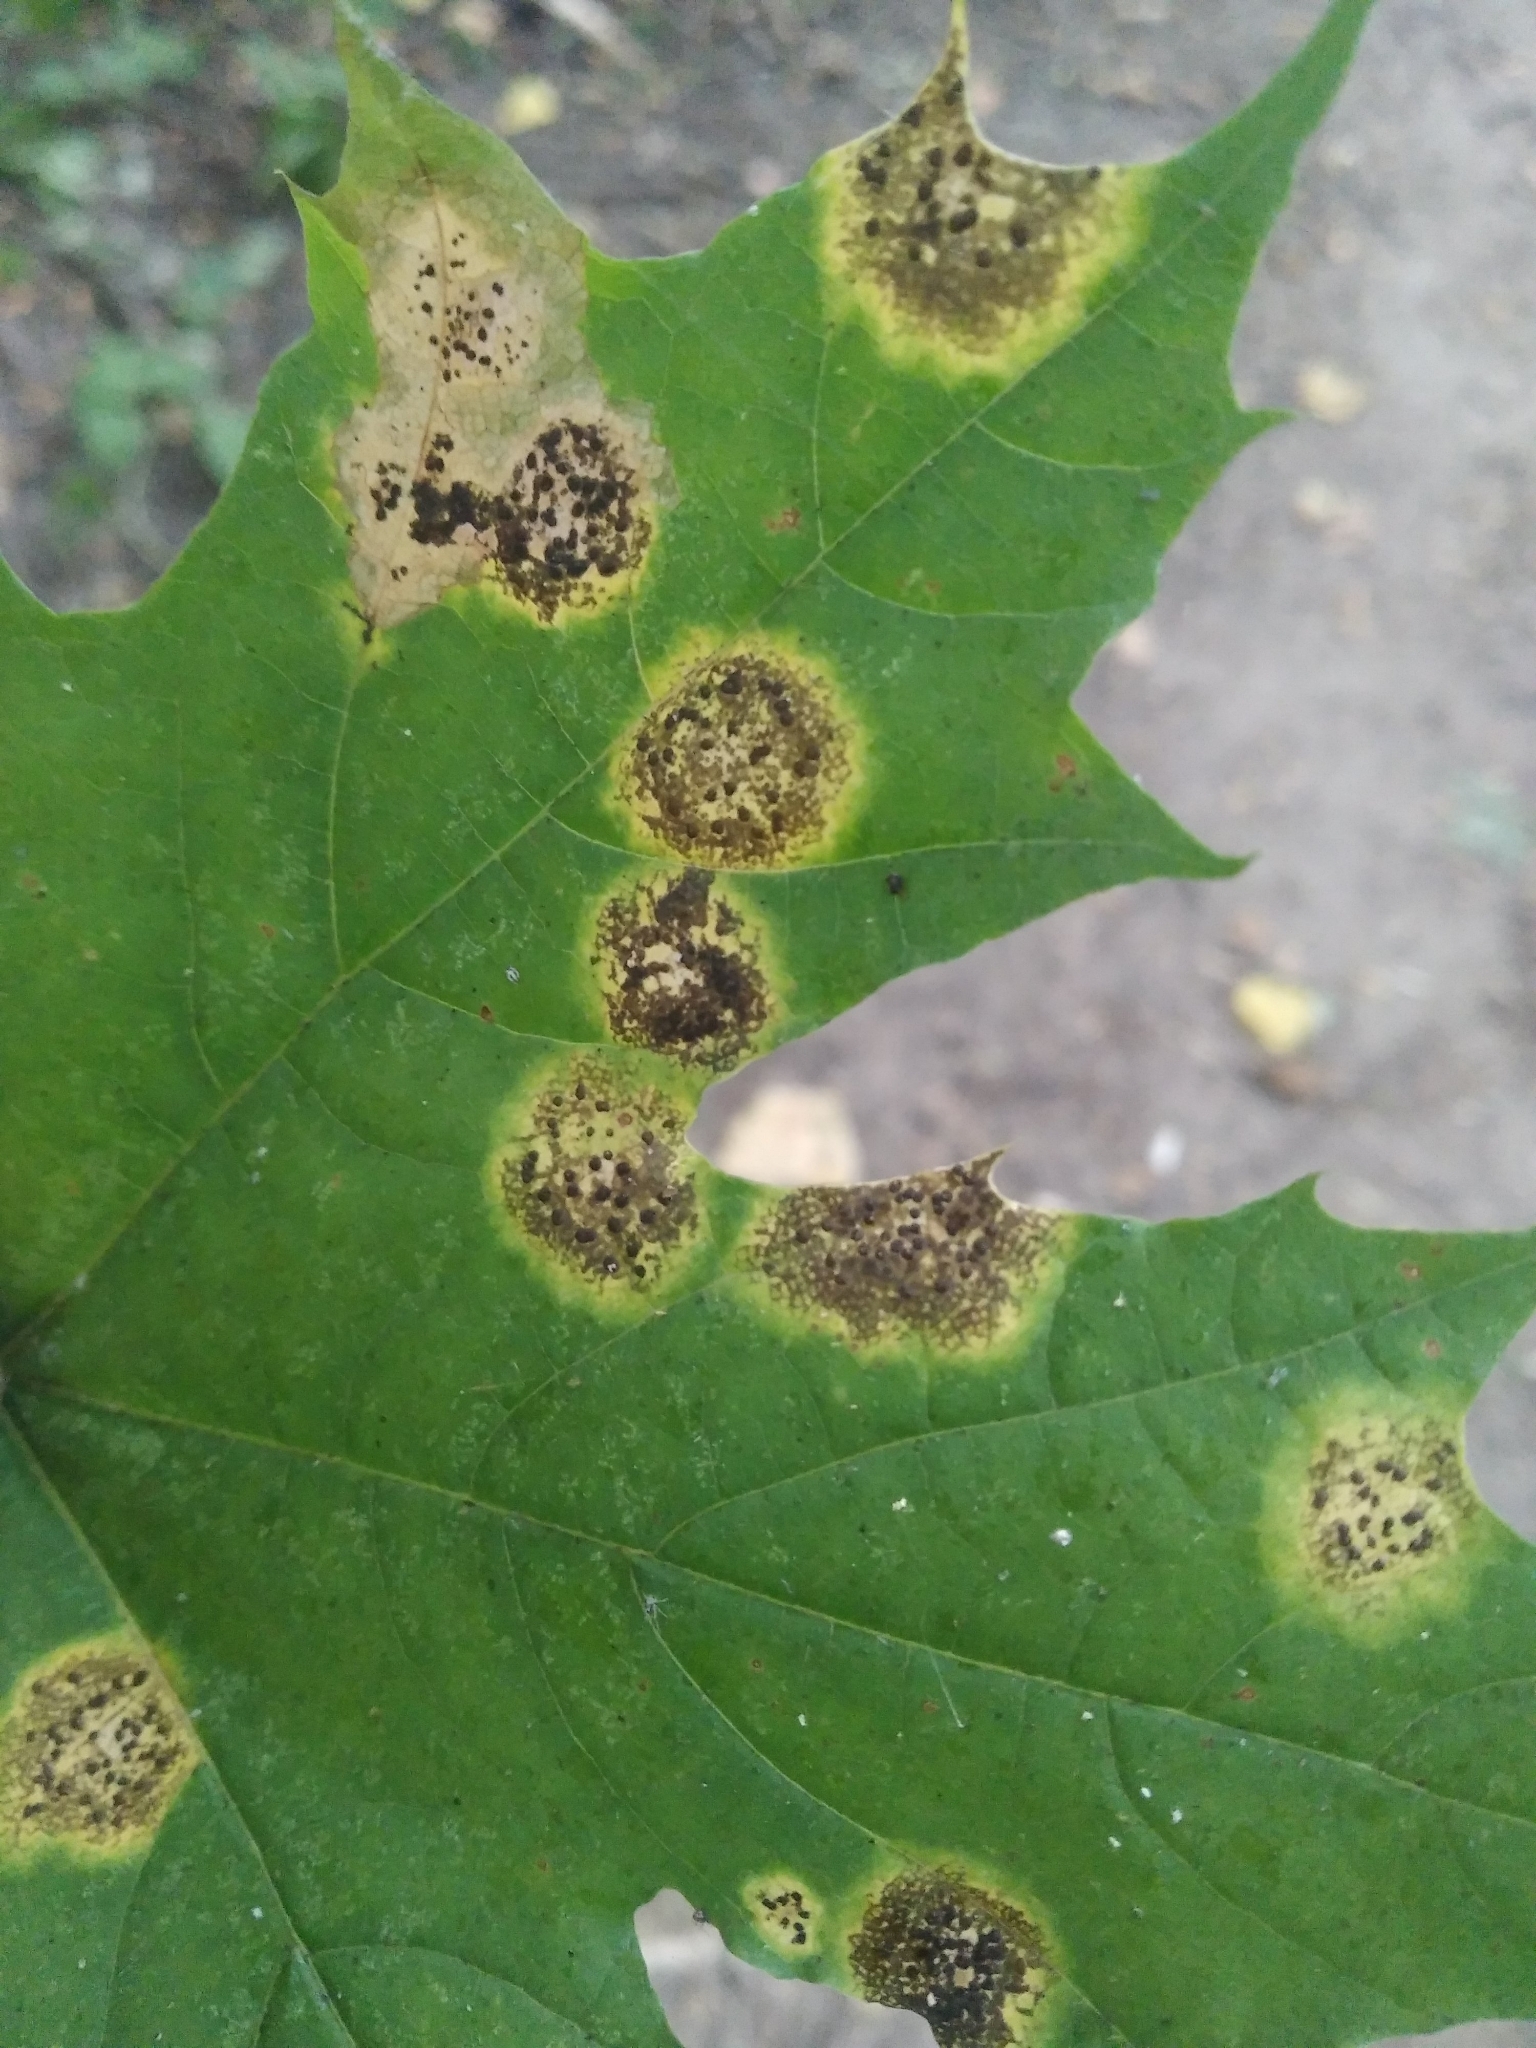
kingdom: Fungi
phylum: Ascomycota
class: Leotiomycetes
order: Rhytismatales
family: Rhytismataceae
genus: Rhytisma
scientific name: Rhytisma acerinum
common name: European tar spot
